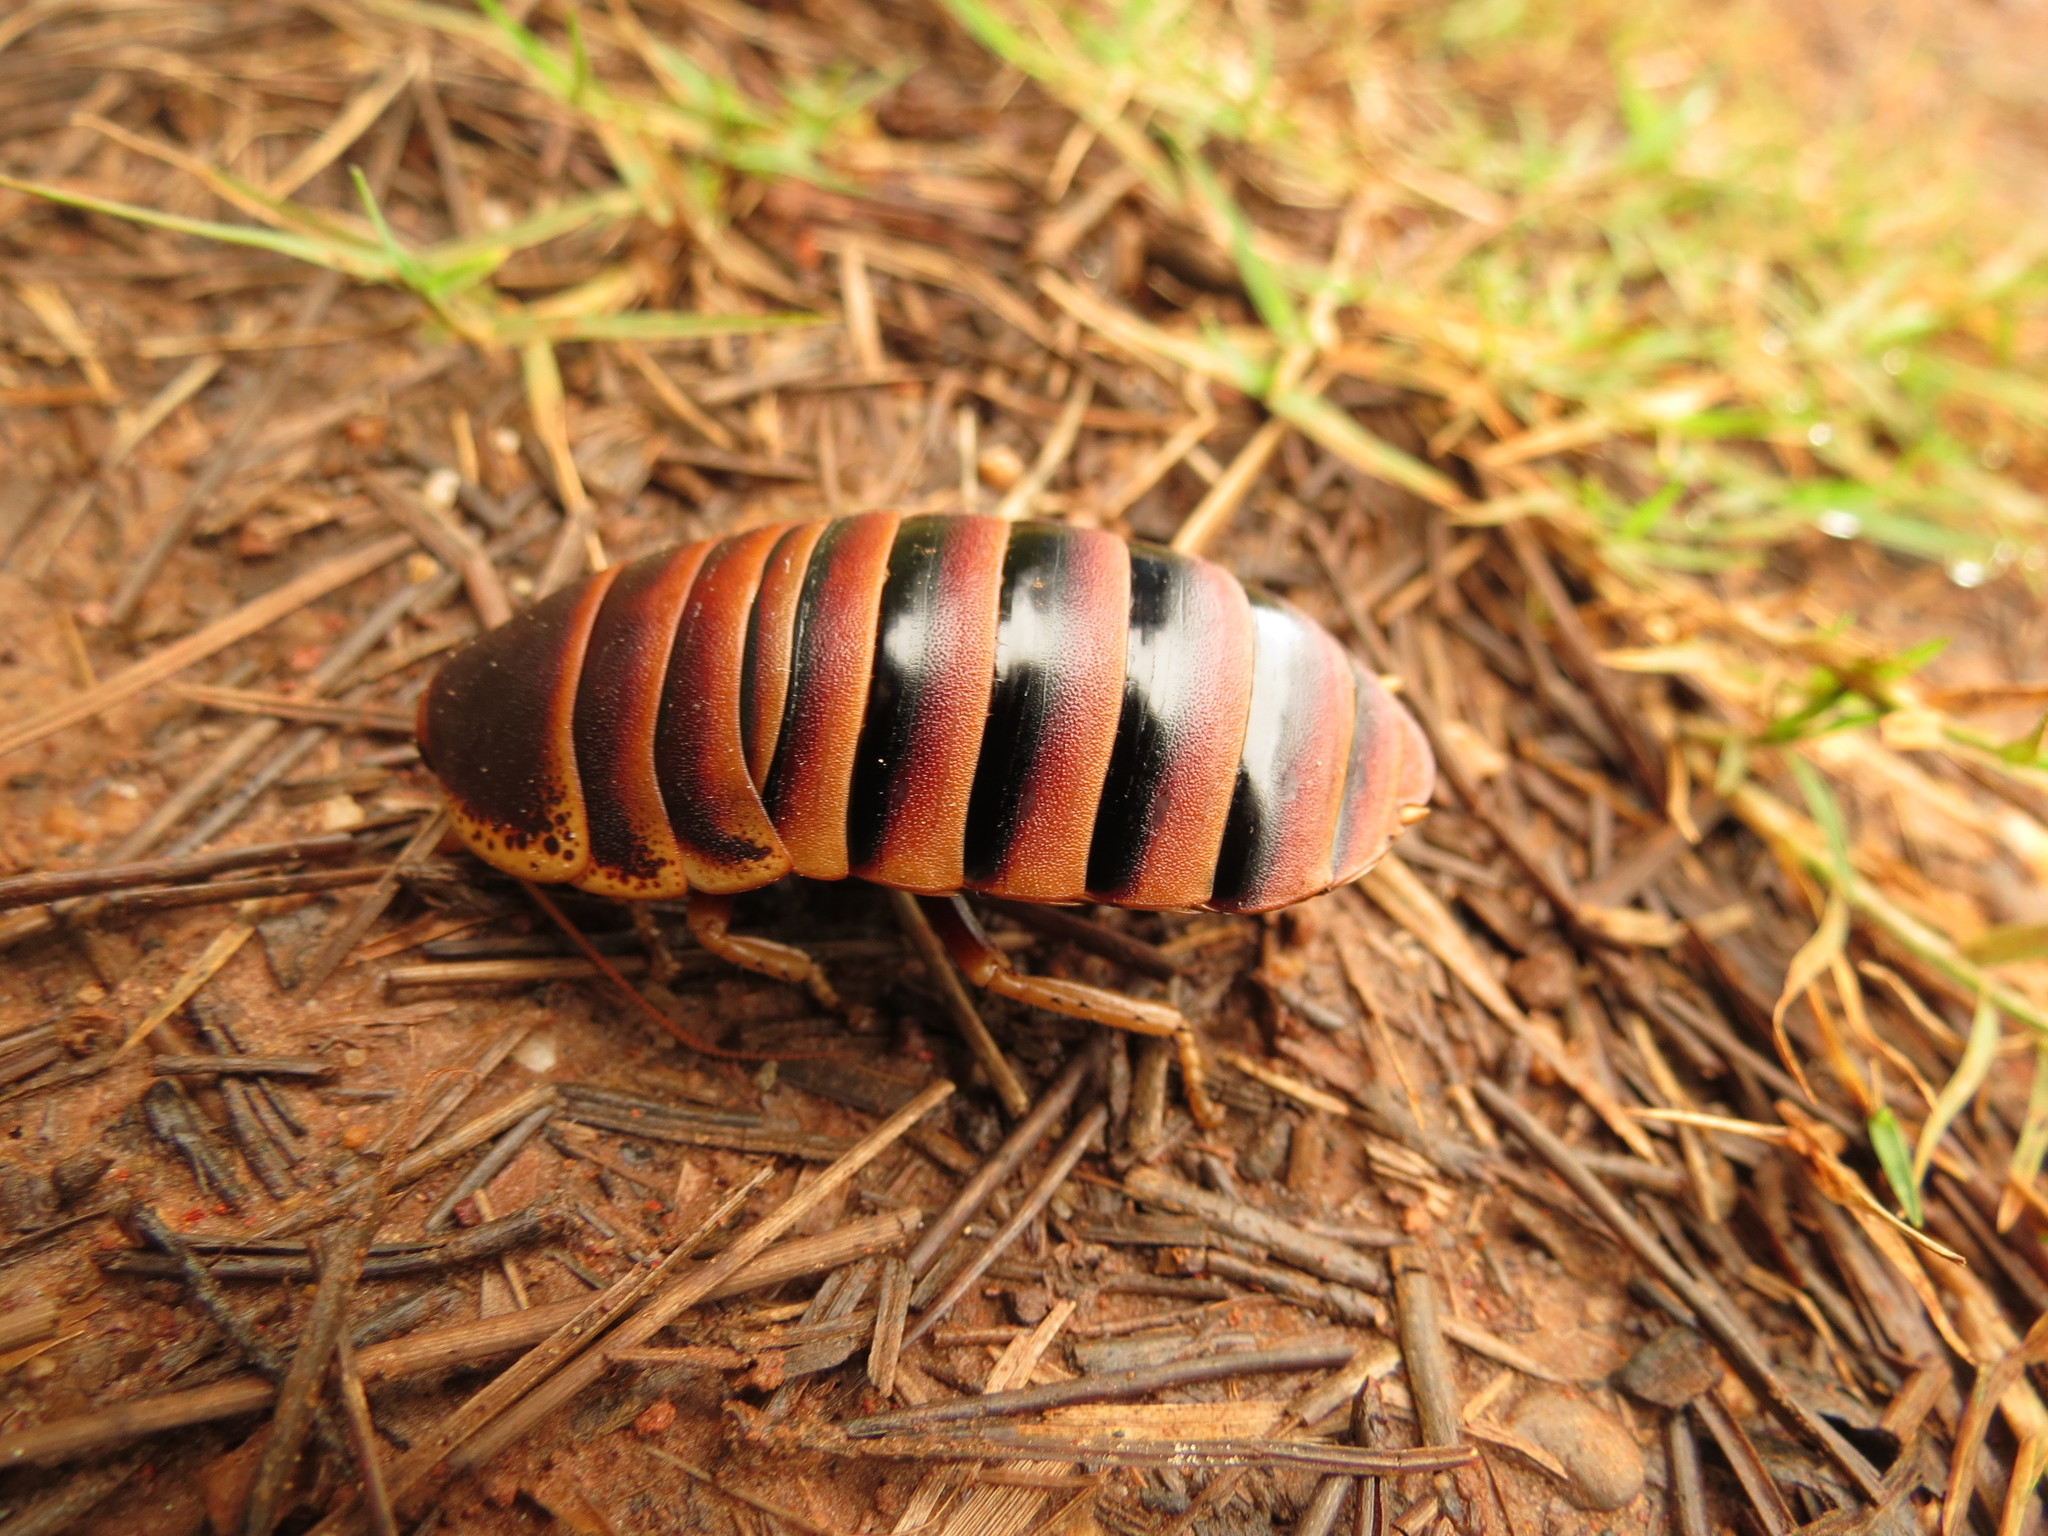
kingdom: Animalia
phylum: Arthropoda
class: Insecta
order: Blattodea
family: Blaberidae
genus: Aptera
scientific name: Aptera fusca
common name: Cape mountain cockroach
